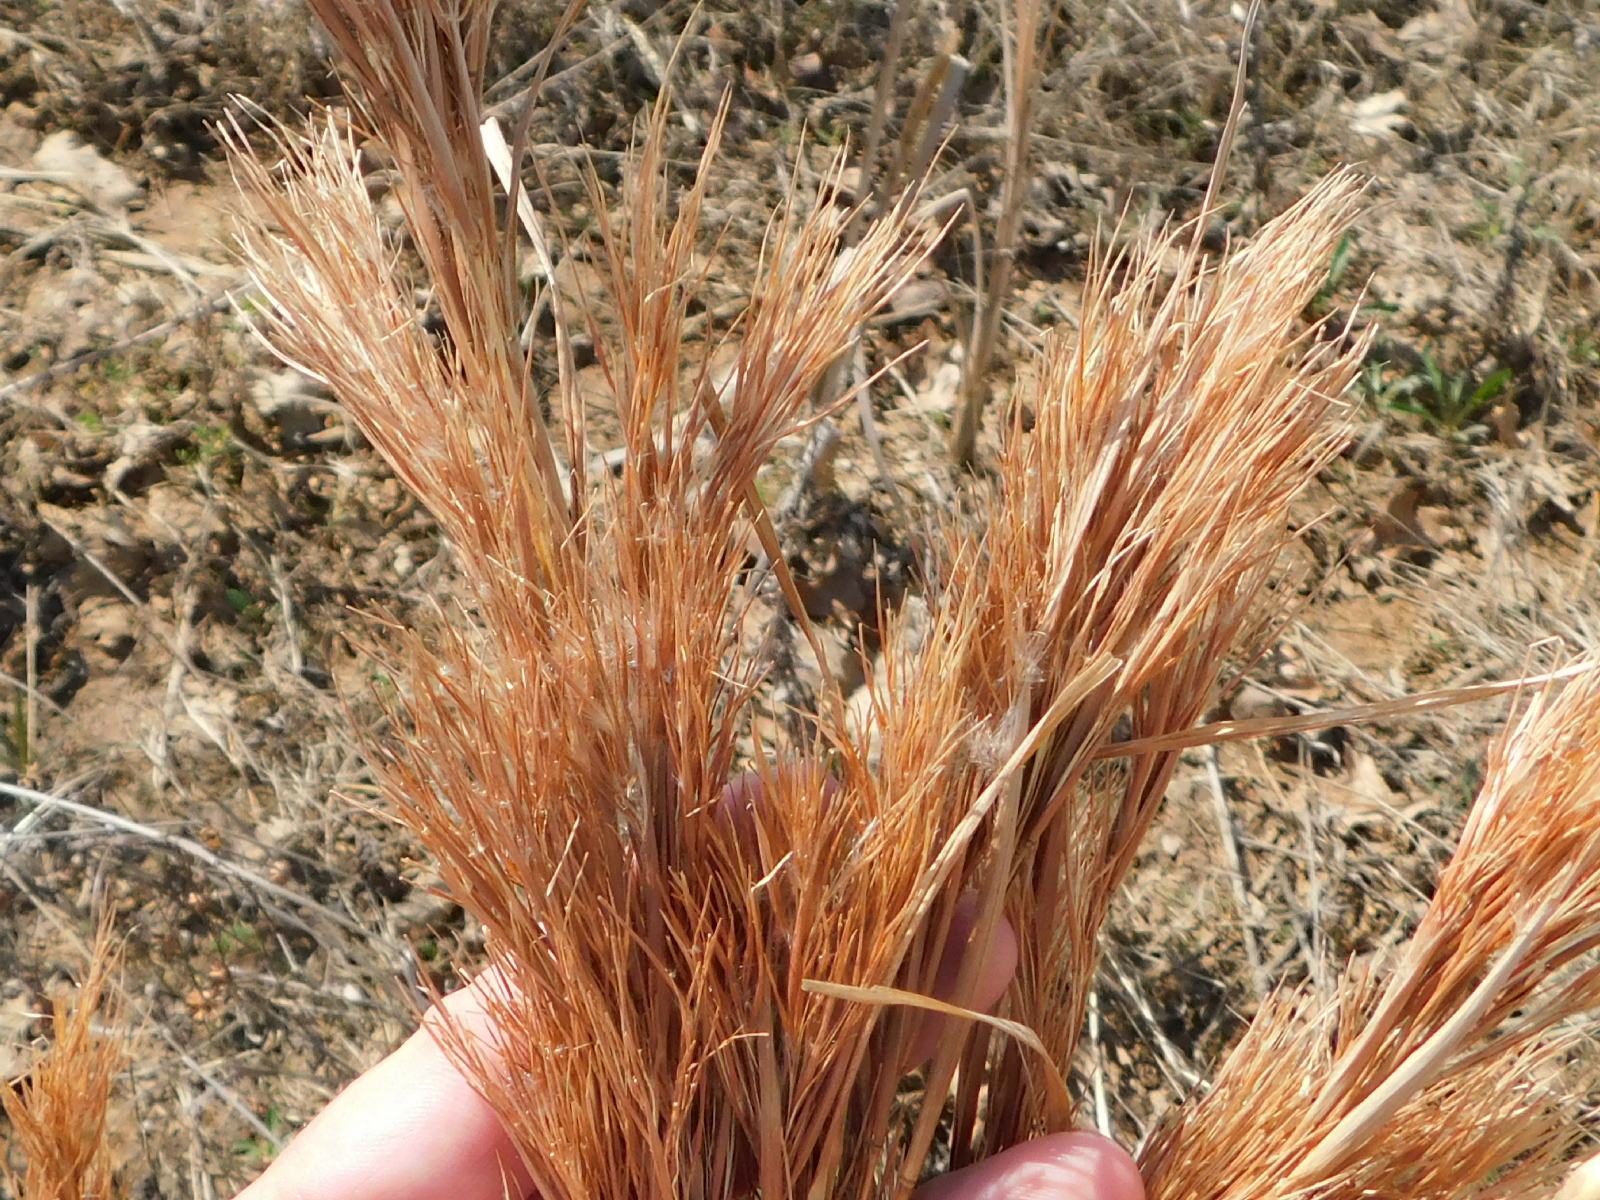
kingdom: Plantae
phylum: Tracheophyta
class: Liliopsida
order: Poales
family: Poaceae
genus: Andropogon
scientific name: Andropogon tenuispatheus
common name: Bushy bluestem
